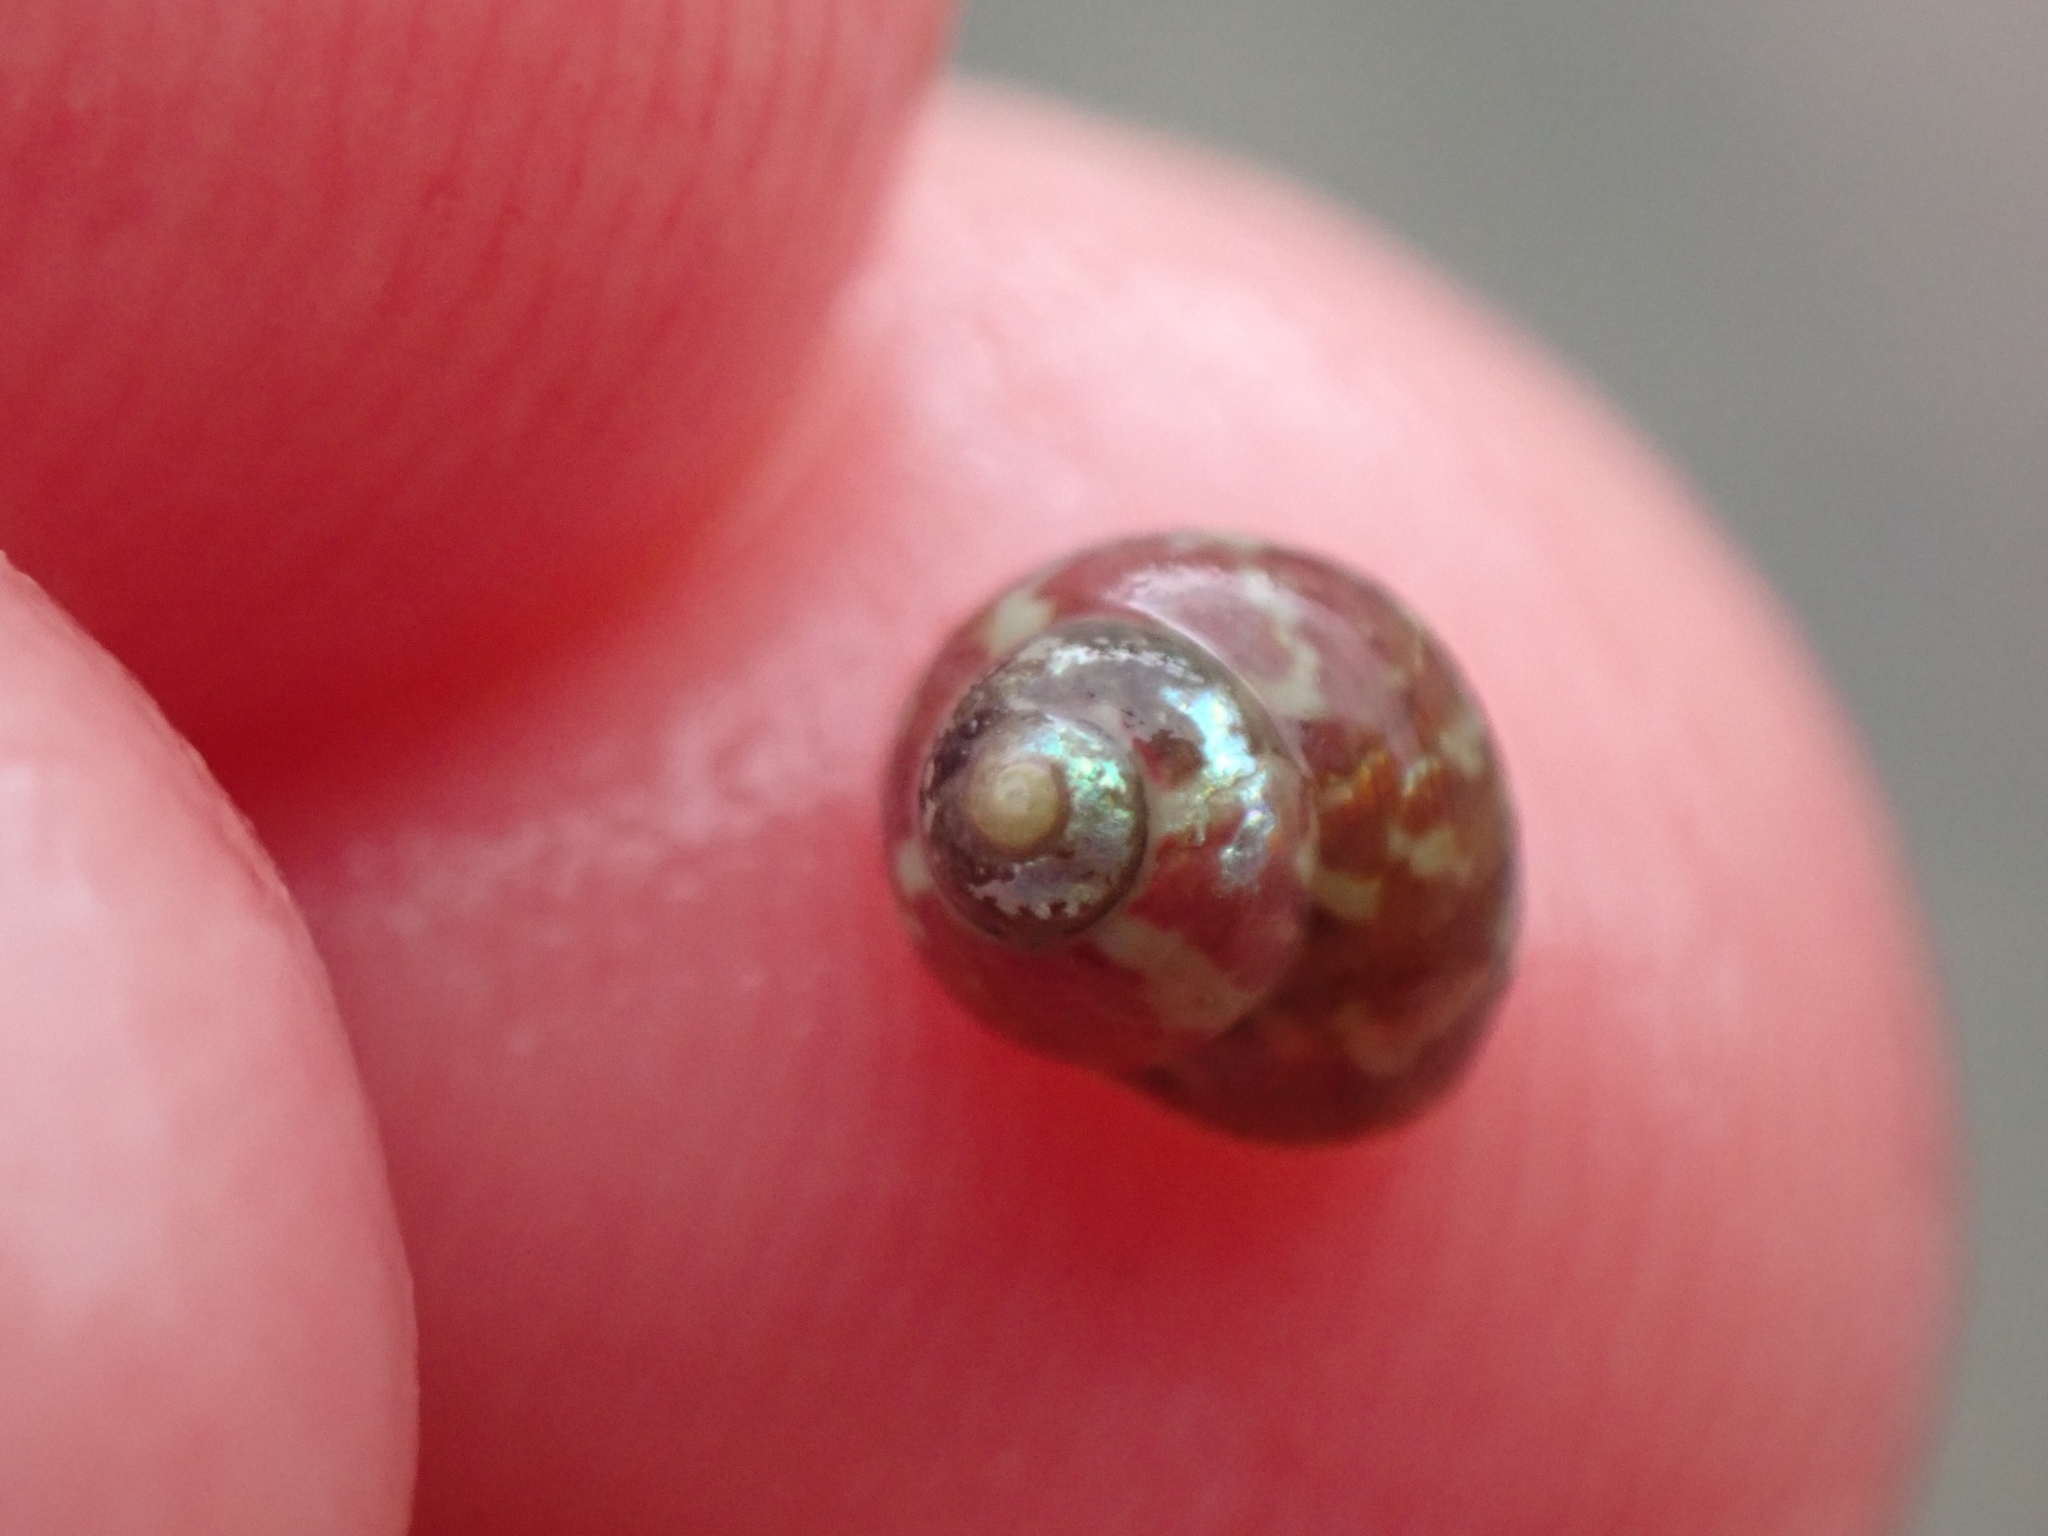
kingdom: Animalia
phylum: Mollusca
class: Gastropoda
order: Trochida
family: Trochidae
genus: Cantharidus
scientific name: Cantharidus dilatatus
